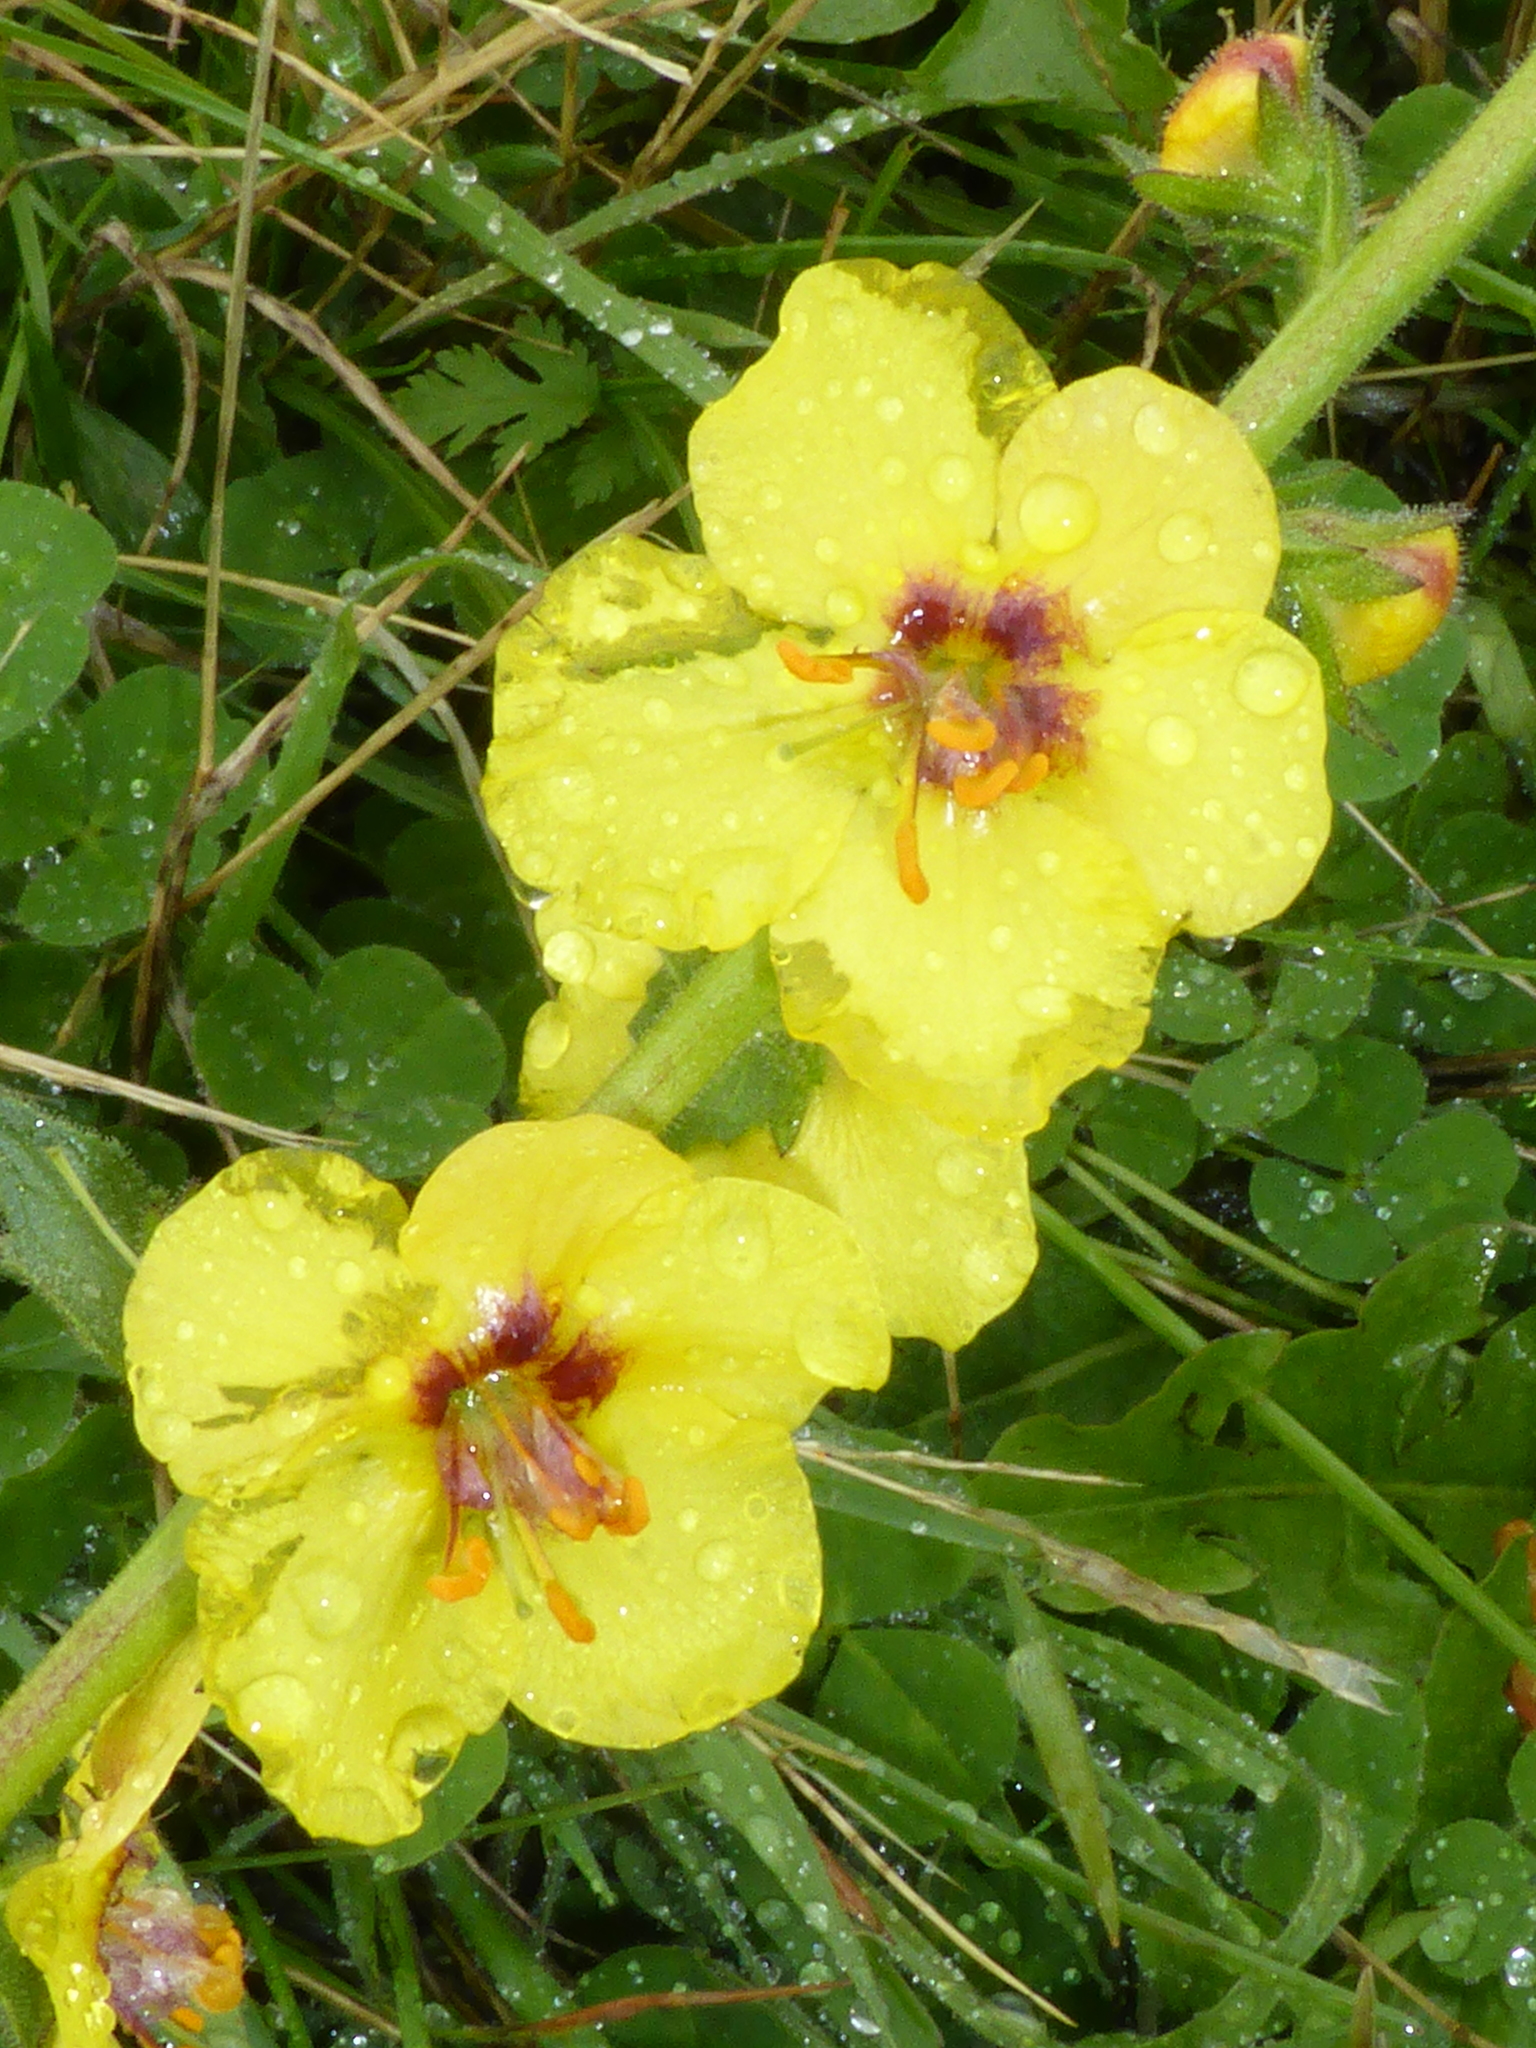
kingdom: Plantae
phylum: Tracheophyta
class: Magnoliopsida
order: Lamiales
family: Scrophulariaceae
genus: Verbascum
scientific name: Verbascum virgatum
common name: Twiggy mullein
